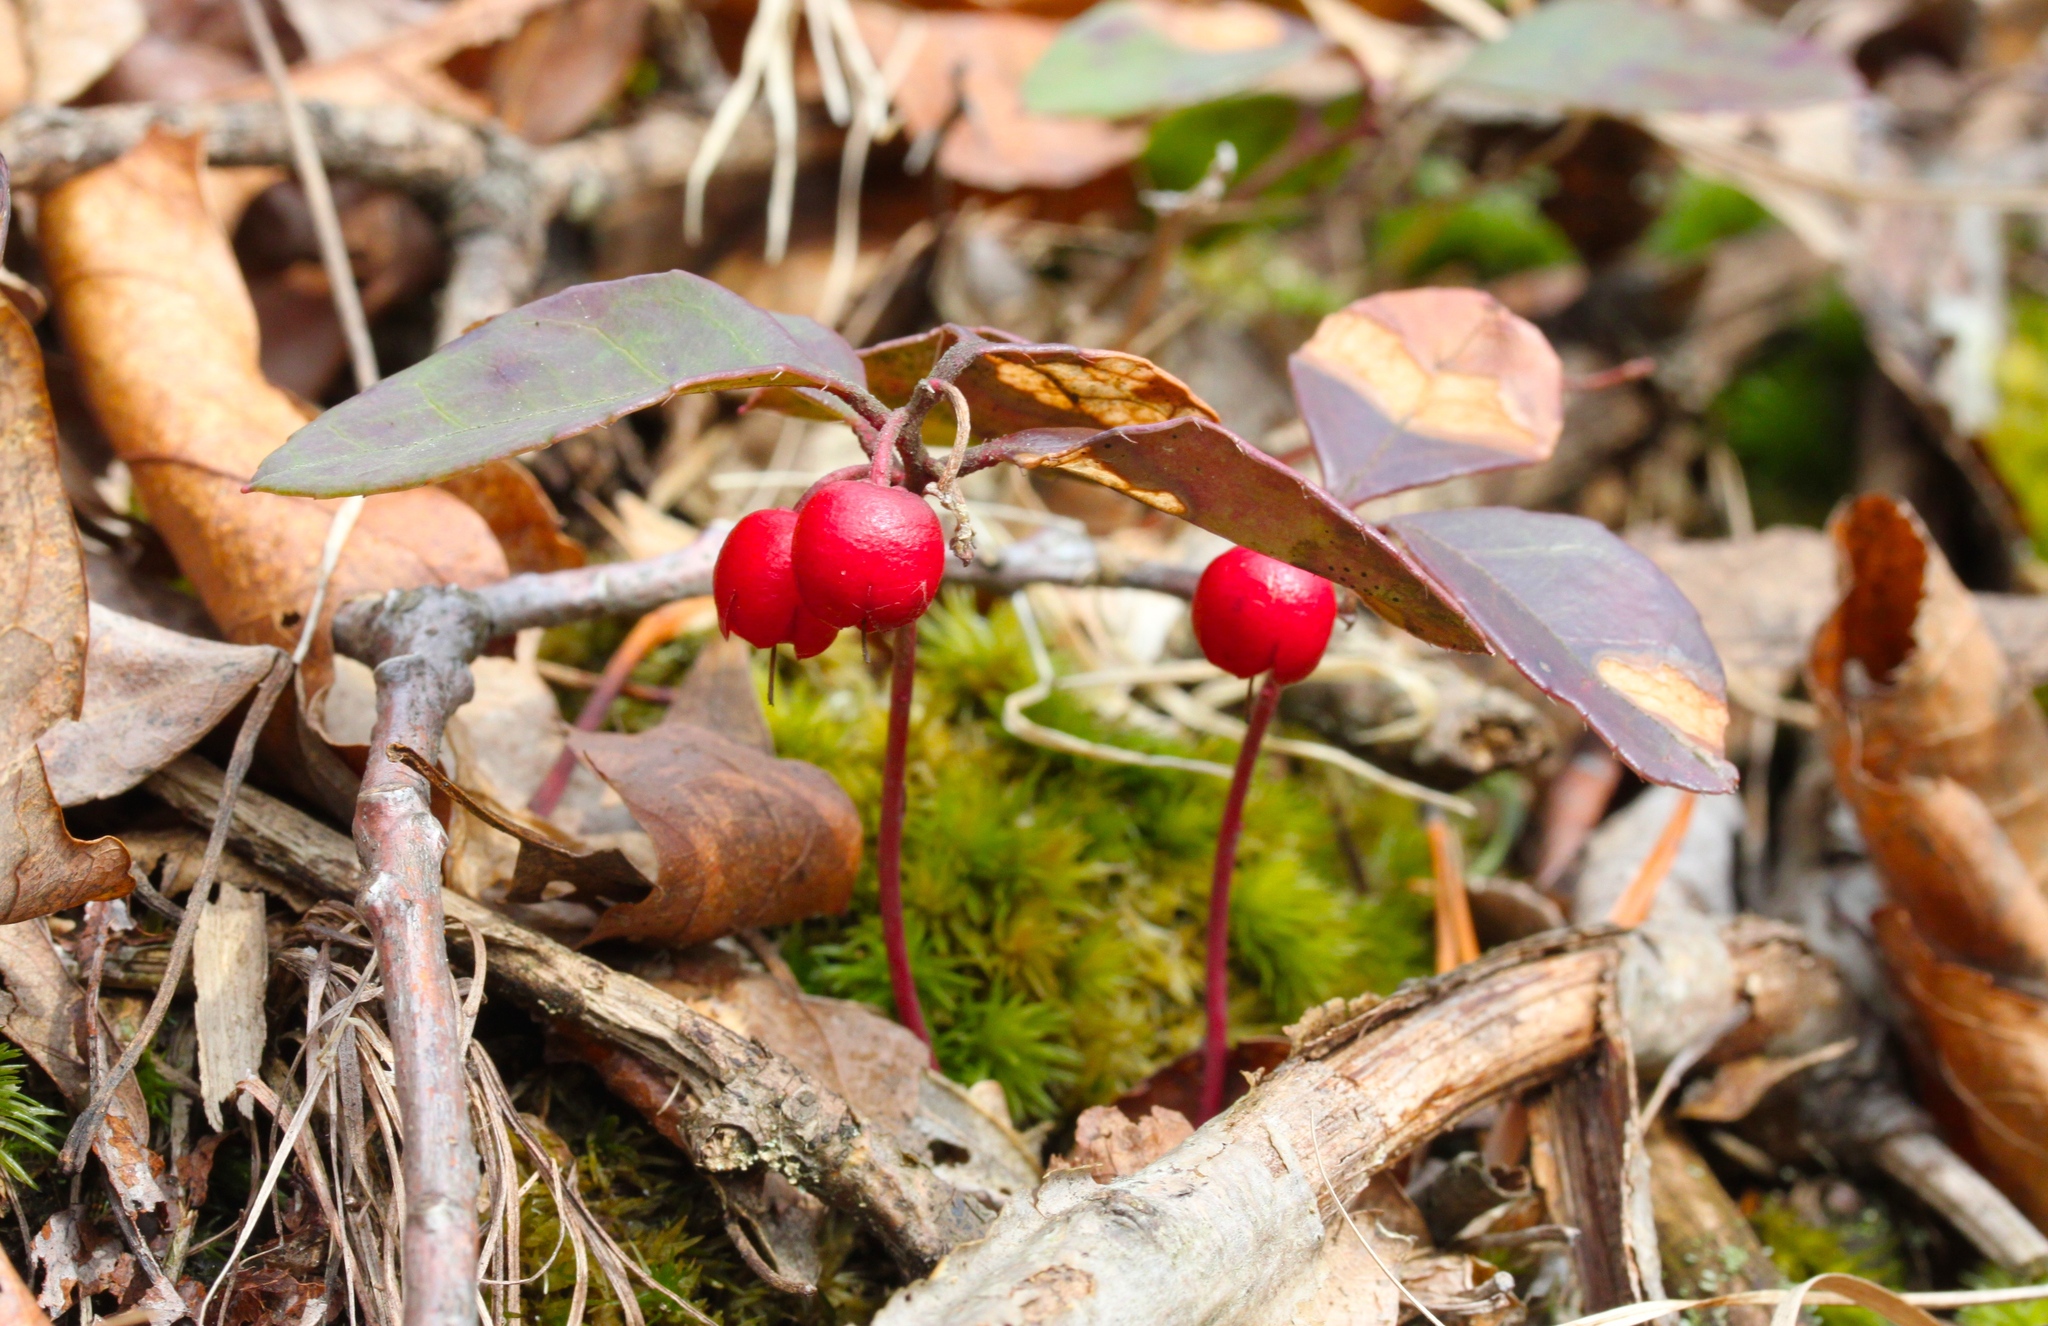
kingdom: Plantae
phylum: Tracheophyta
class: Magnoliopsida
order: Ericales
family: Ericaceae
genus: Gaultheria
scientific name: Gaultheria procumbens
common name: Checkerberry
